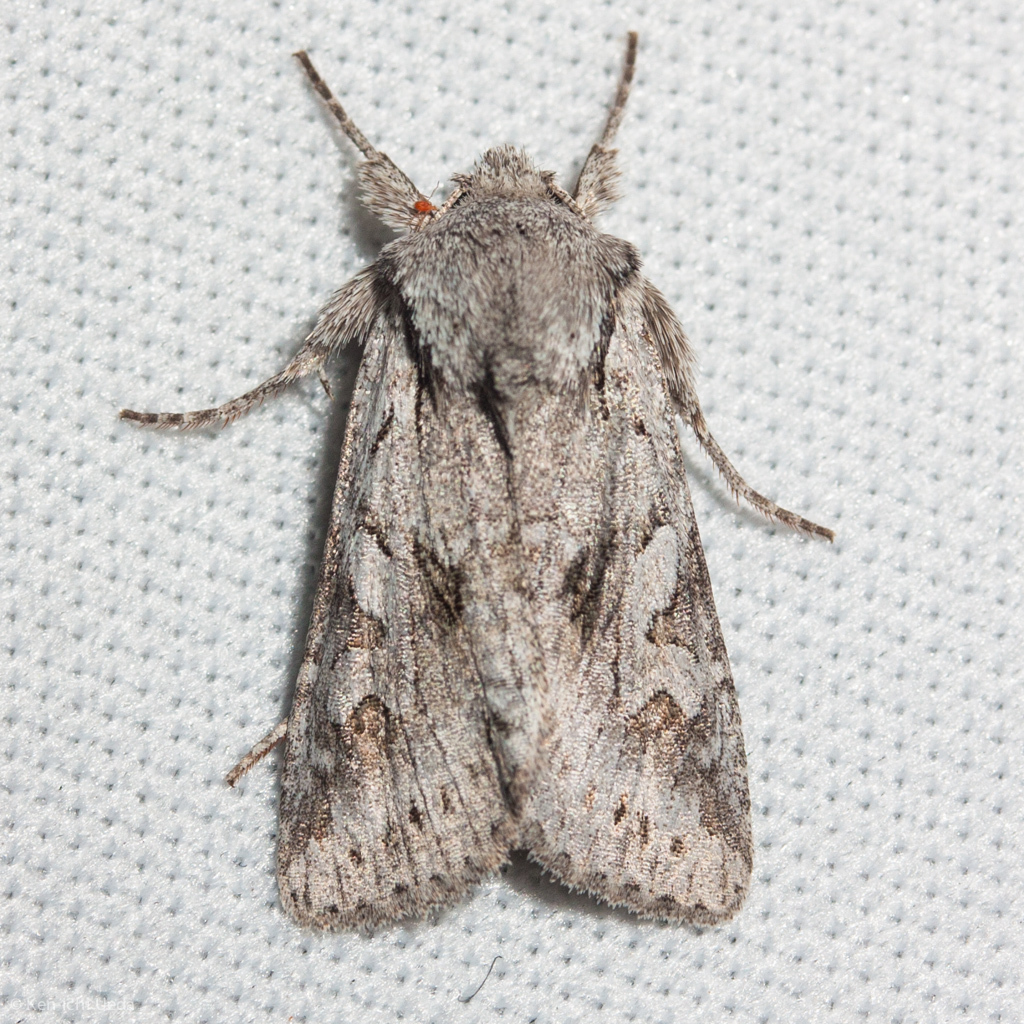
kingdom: Animalia
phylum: Arthropoda
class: Insecta
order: Lepidoptera
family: Noctuidae
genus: Lacinipolia
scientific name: Lacinipolia patalis
